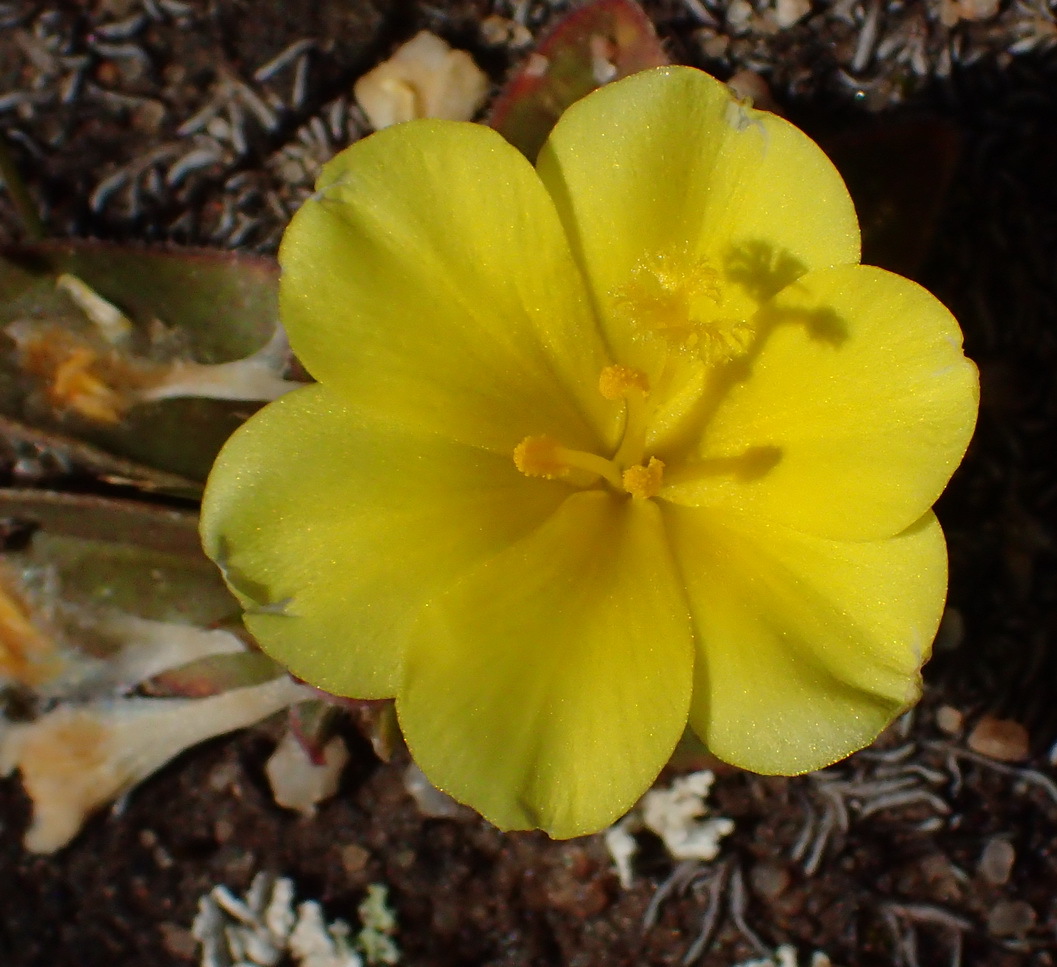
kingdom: Plantae
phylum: Tracheophyta
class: Liliopsida
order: Asparagales
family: Iridaceae
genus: Moraea
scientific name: Moraea luteoalba
